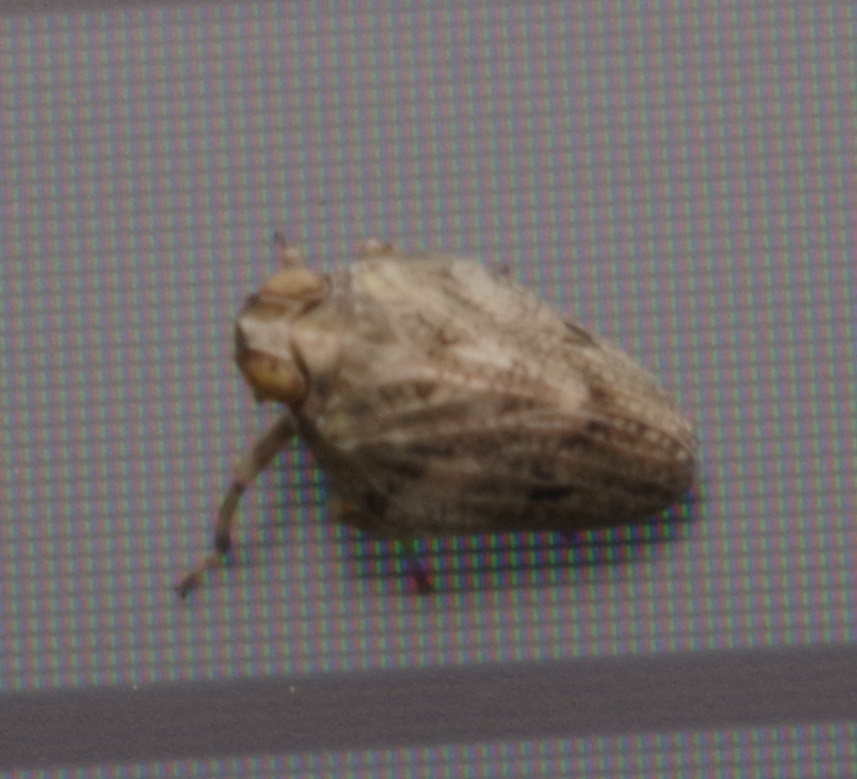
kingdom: Animalia
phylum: Arthropoda
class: Insecta
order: Hemiptera
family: Issidae
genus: Issus
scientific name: Issus coleoptratus
